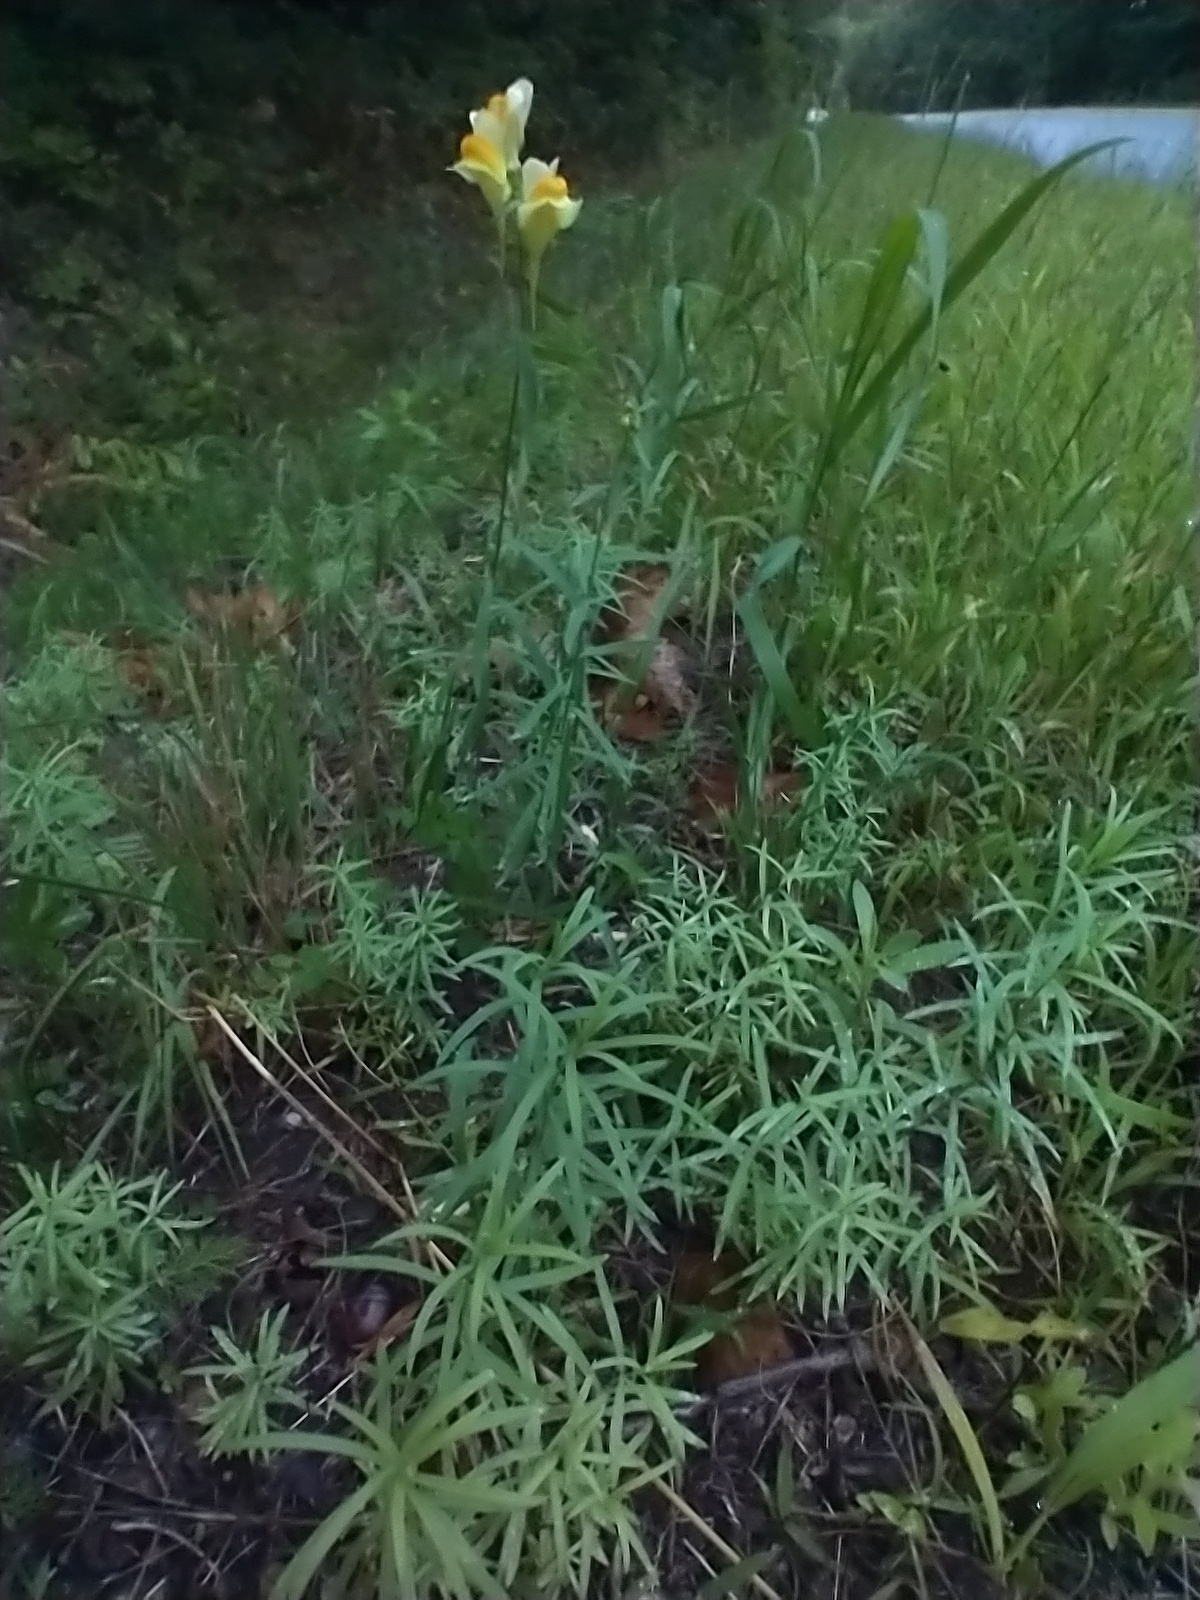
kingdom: Plantae
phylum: Tracheophyta
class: Magnoliopsida
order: Lamiales
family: Plantaginaceae
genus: Linaria
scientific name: Linaria vulgaris
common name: Butter and eggs
